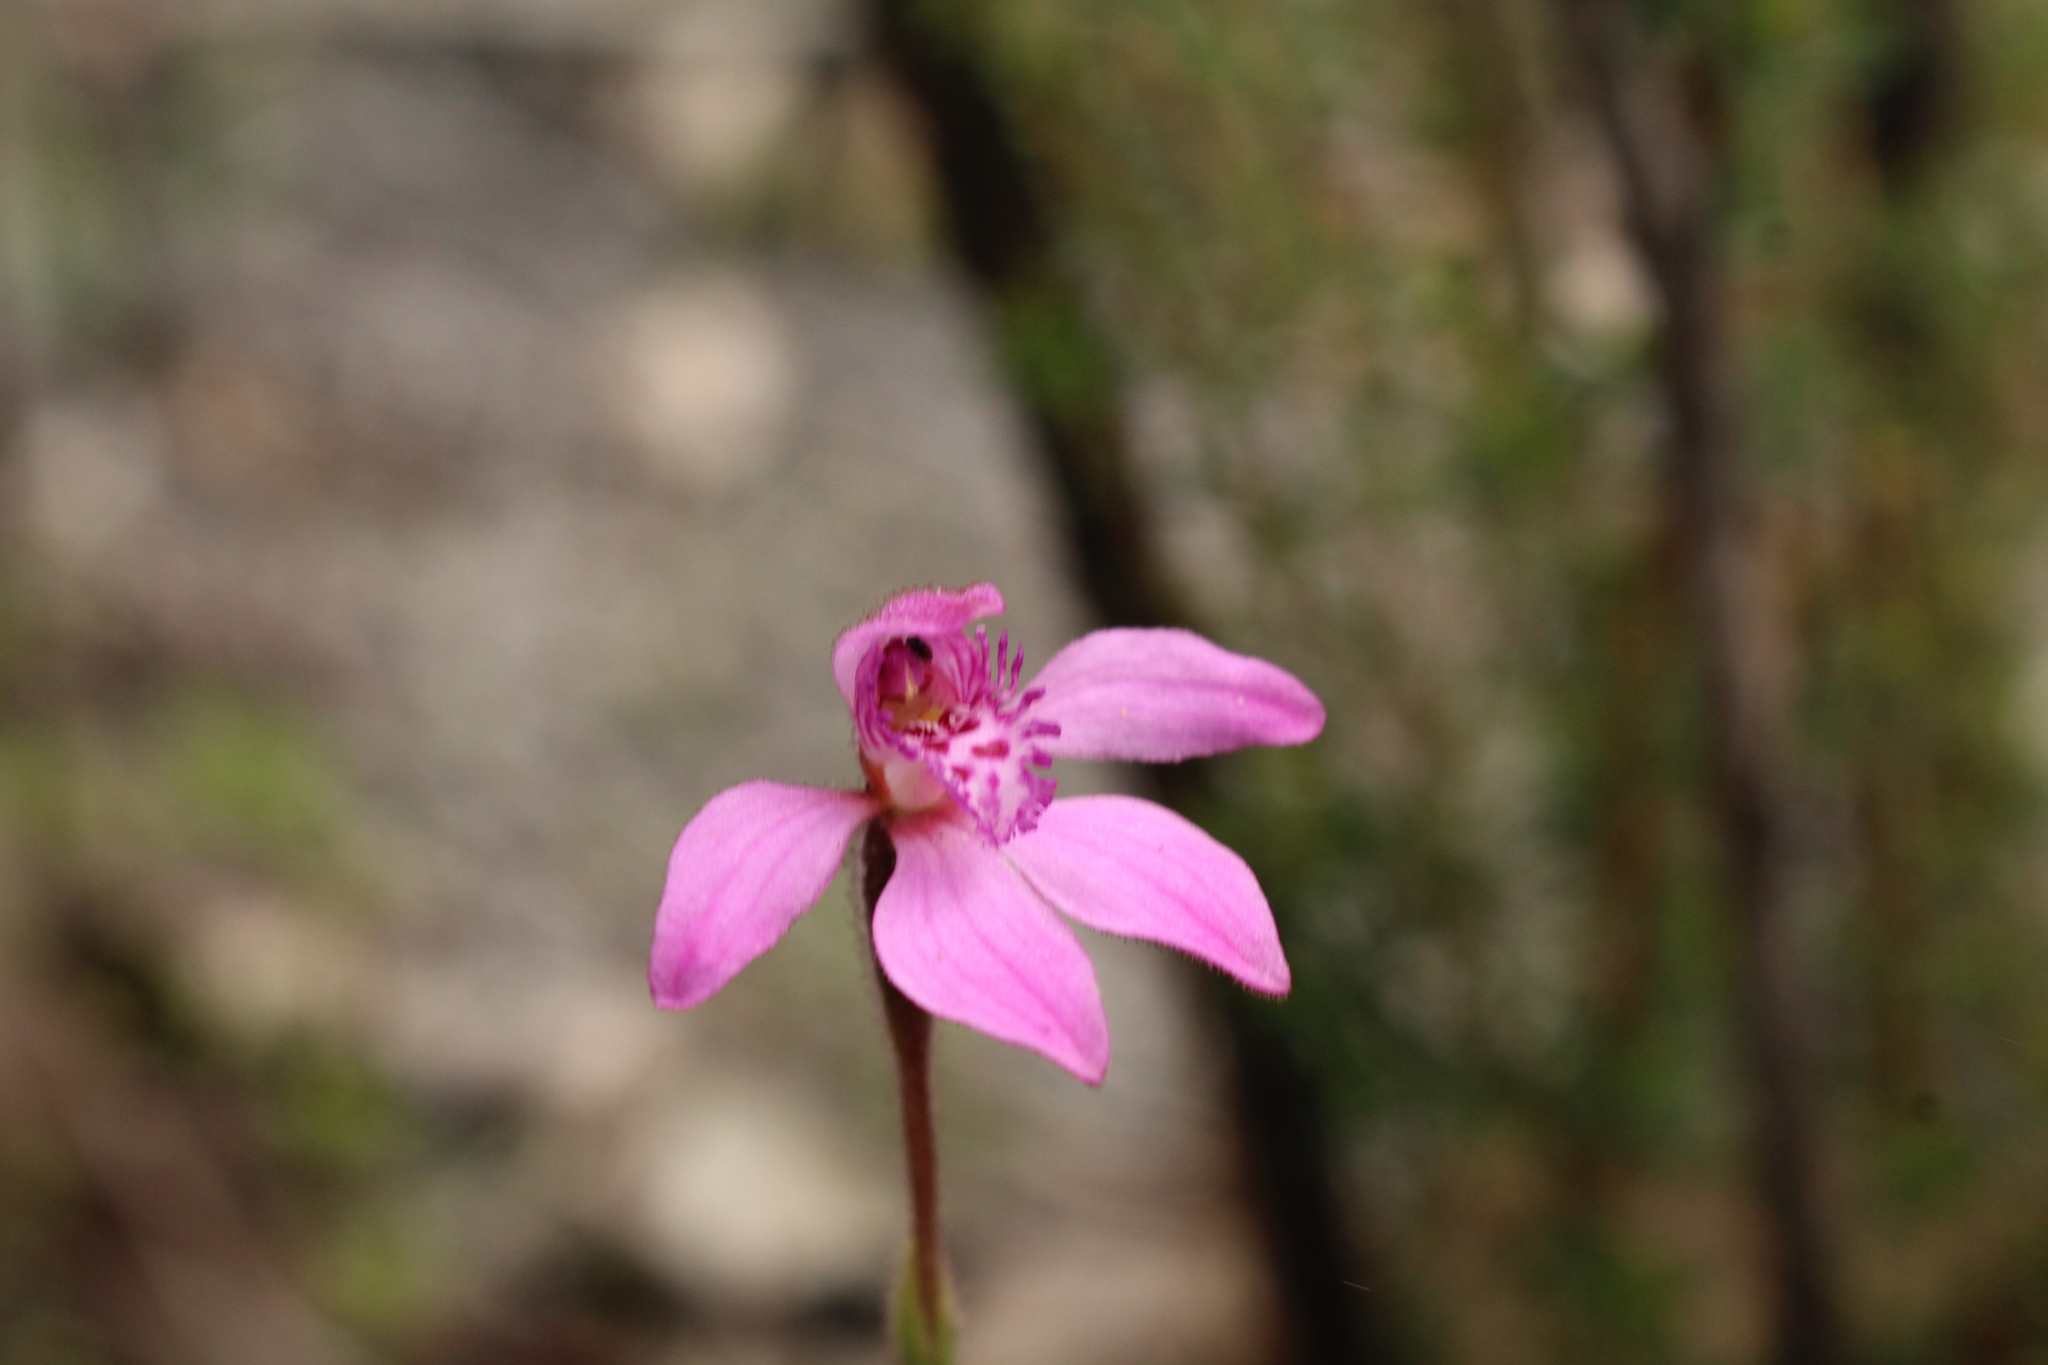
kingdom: Plantae
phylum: Tracheophyta
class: Liliopsida
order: Asparagales
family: Orchidaceae
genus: Caladenia
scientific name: Caladenia nana
